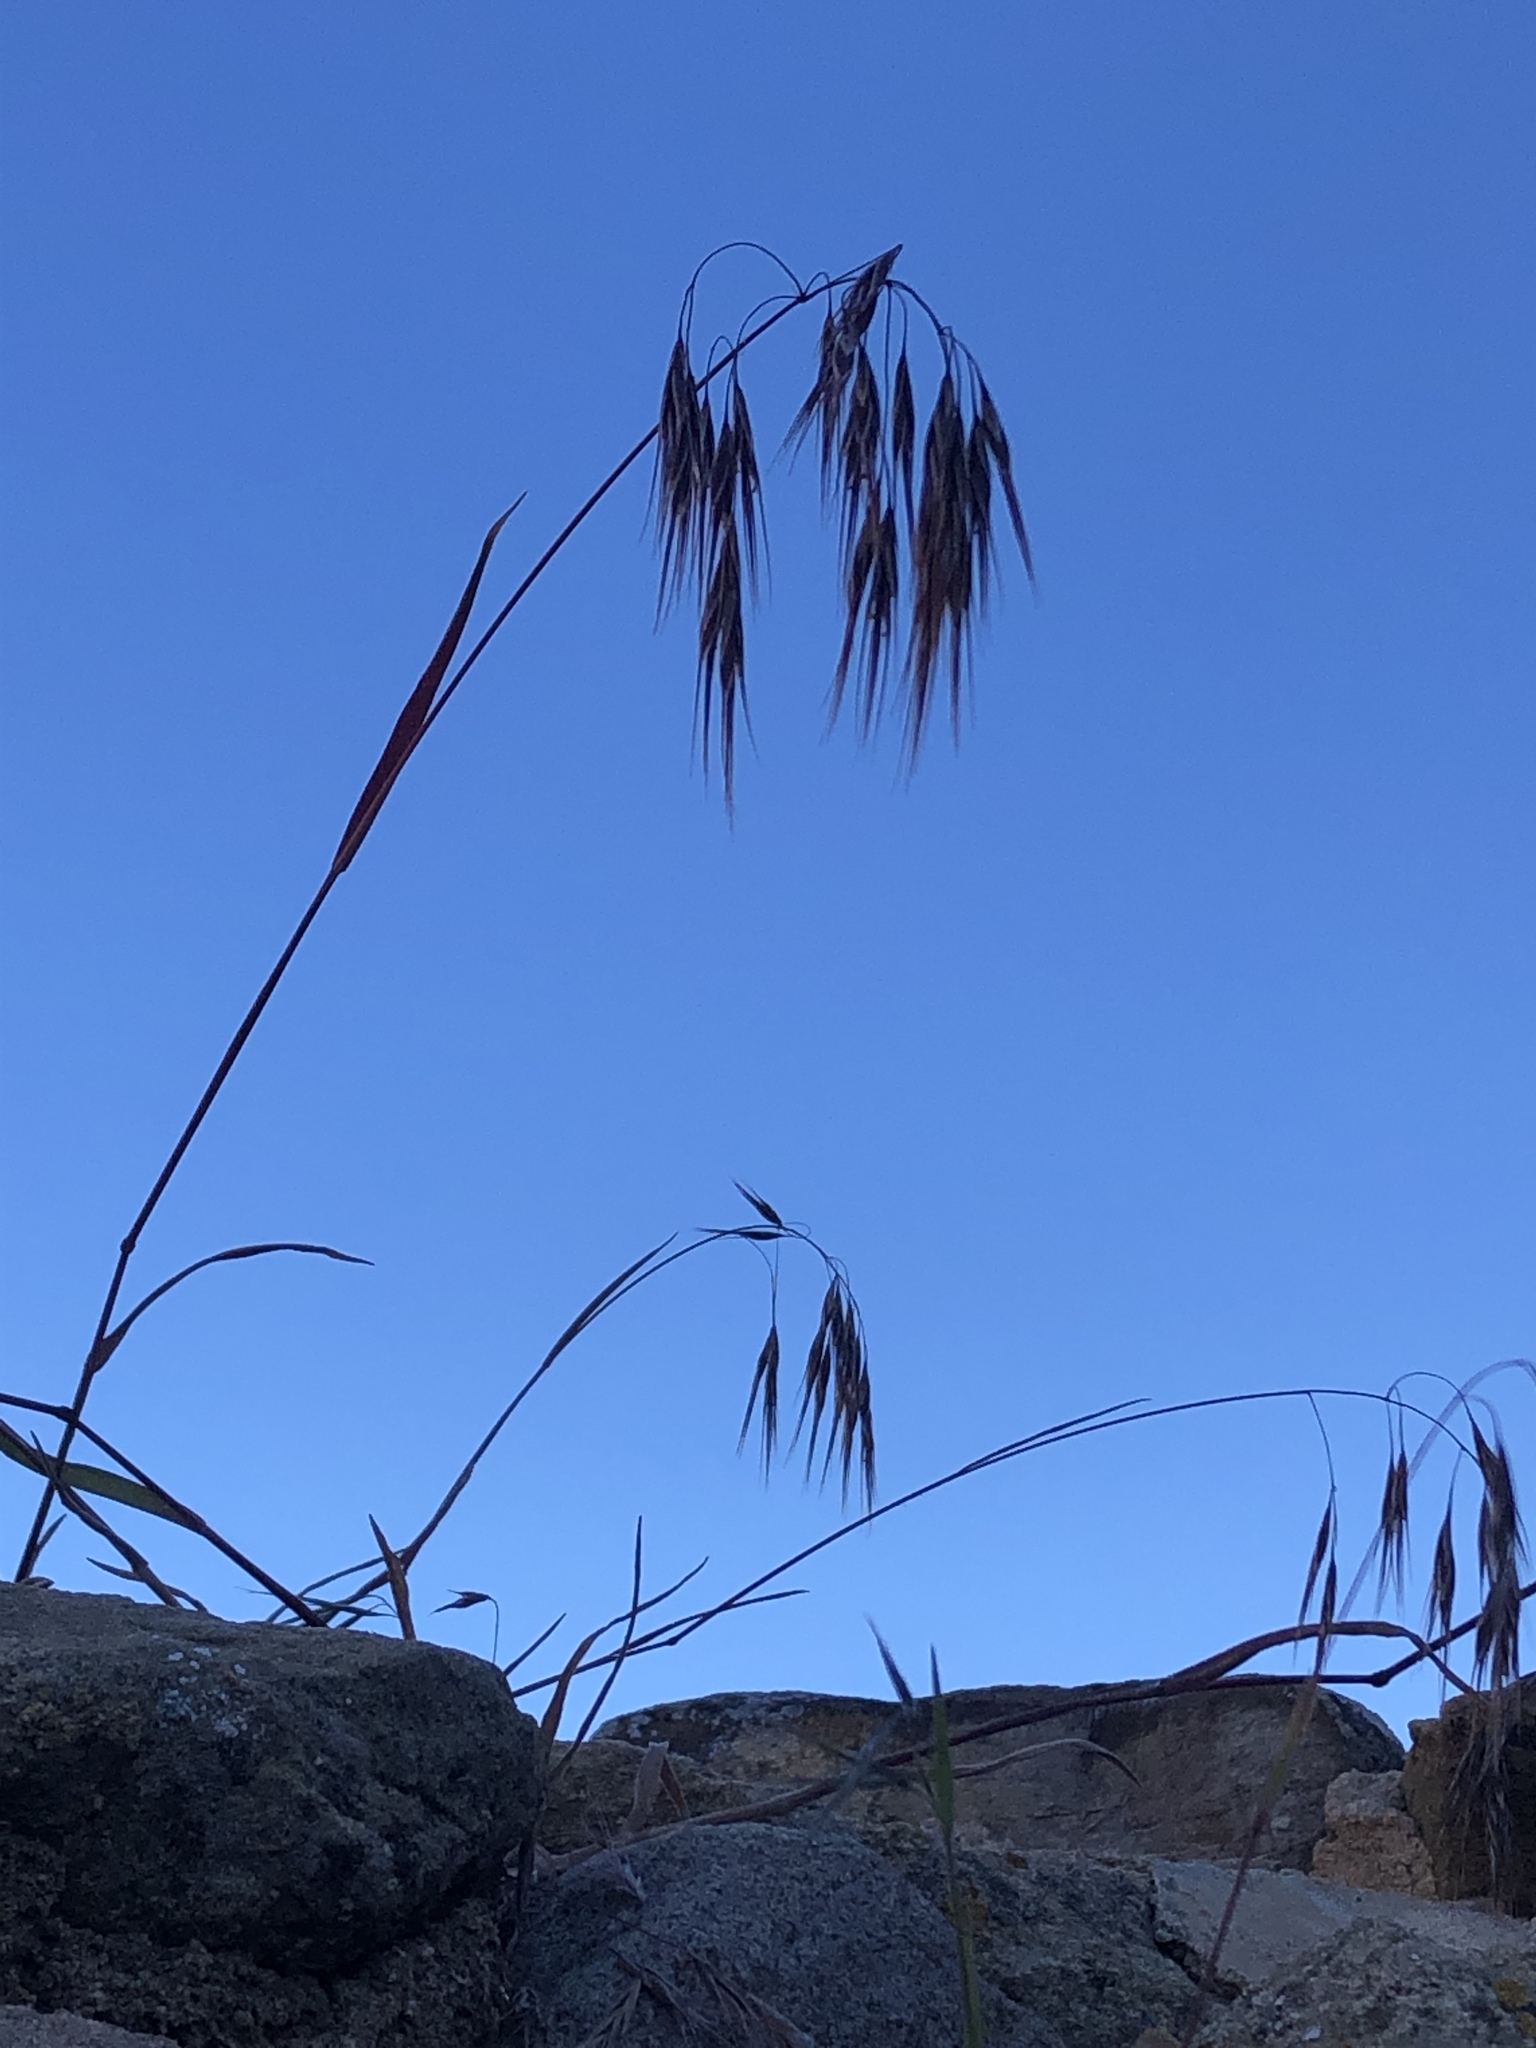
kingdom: Plantae
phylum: Tracheophyta
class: Liliopsida
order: Poales
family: Poaceae
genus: Bromus
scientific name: Bromus tectorum
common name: Cheatgrass
